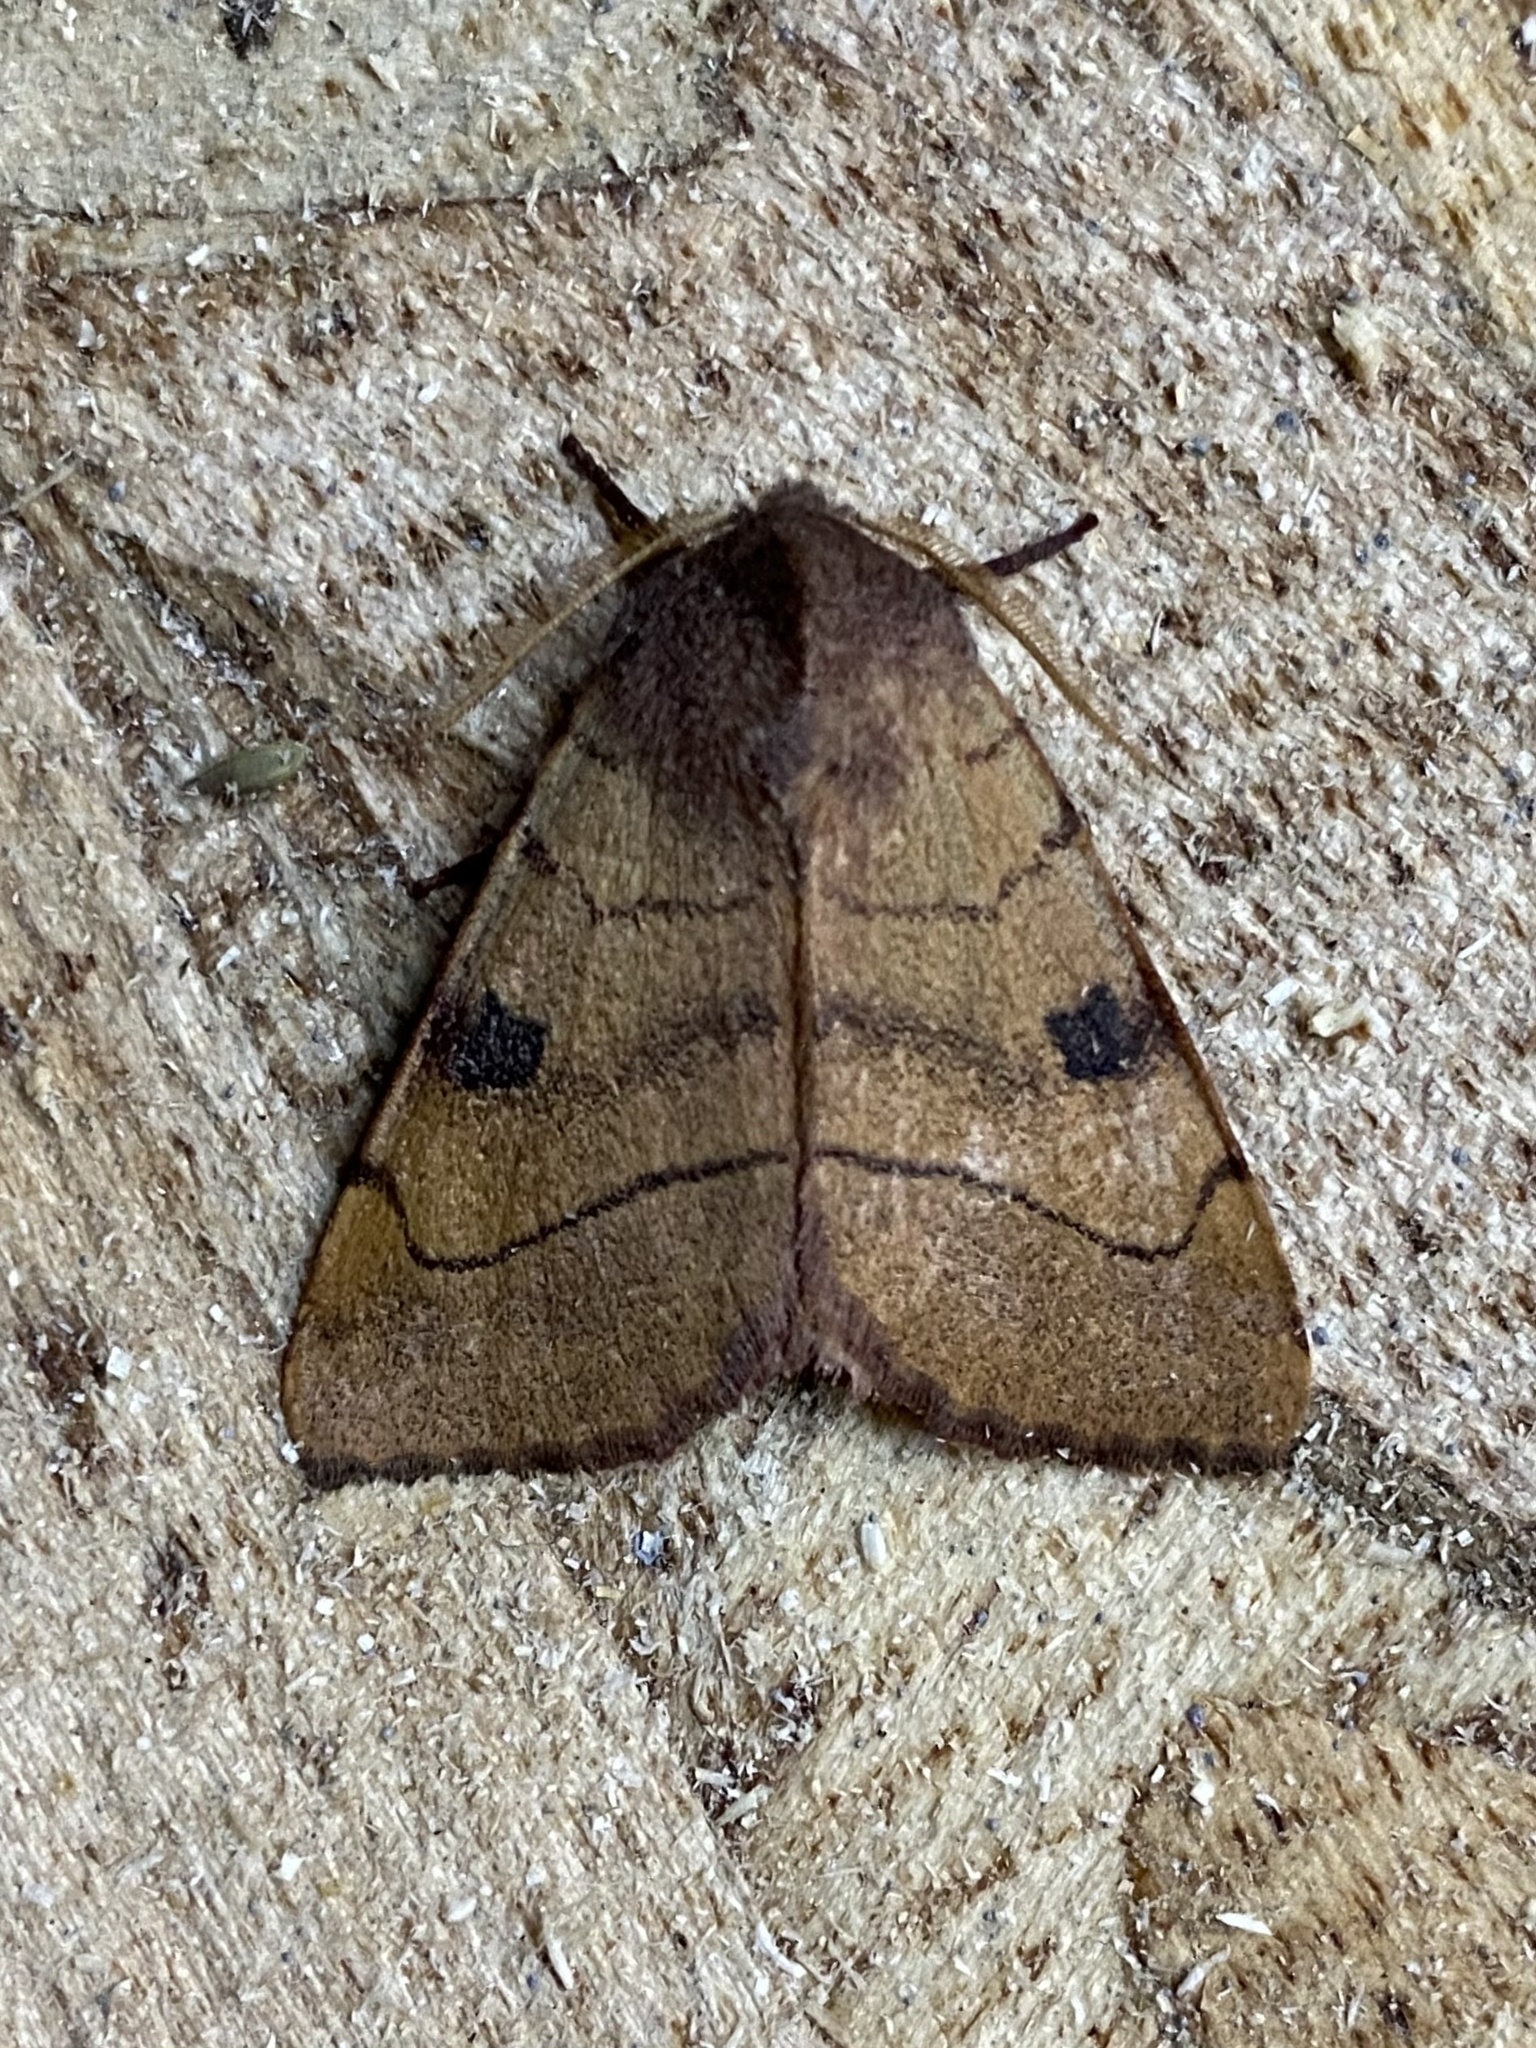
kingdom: Animalia
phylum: Arthropoda
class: Insecta
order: Lepidoptera
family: Noctuidae
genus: Choephora
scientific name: Choephora fungorum
